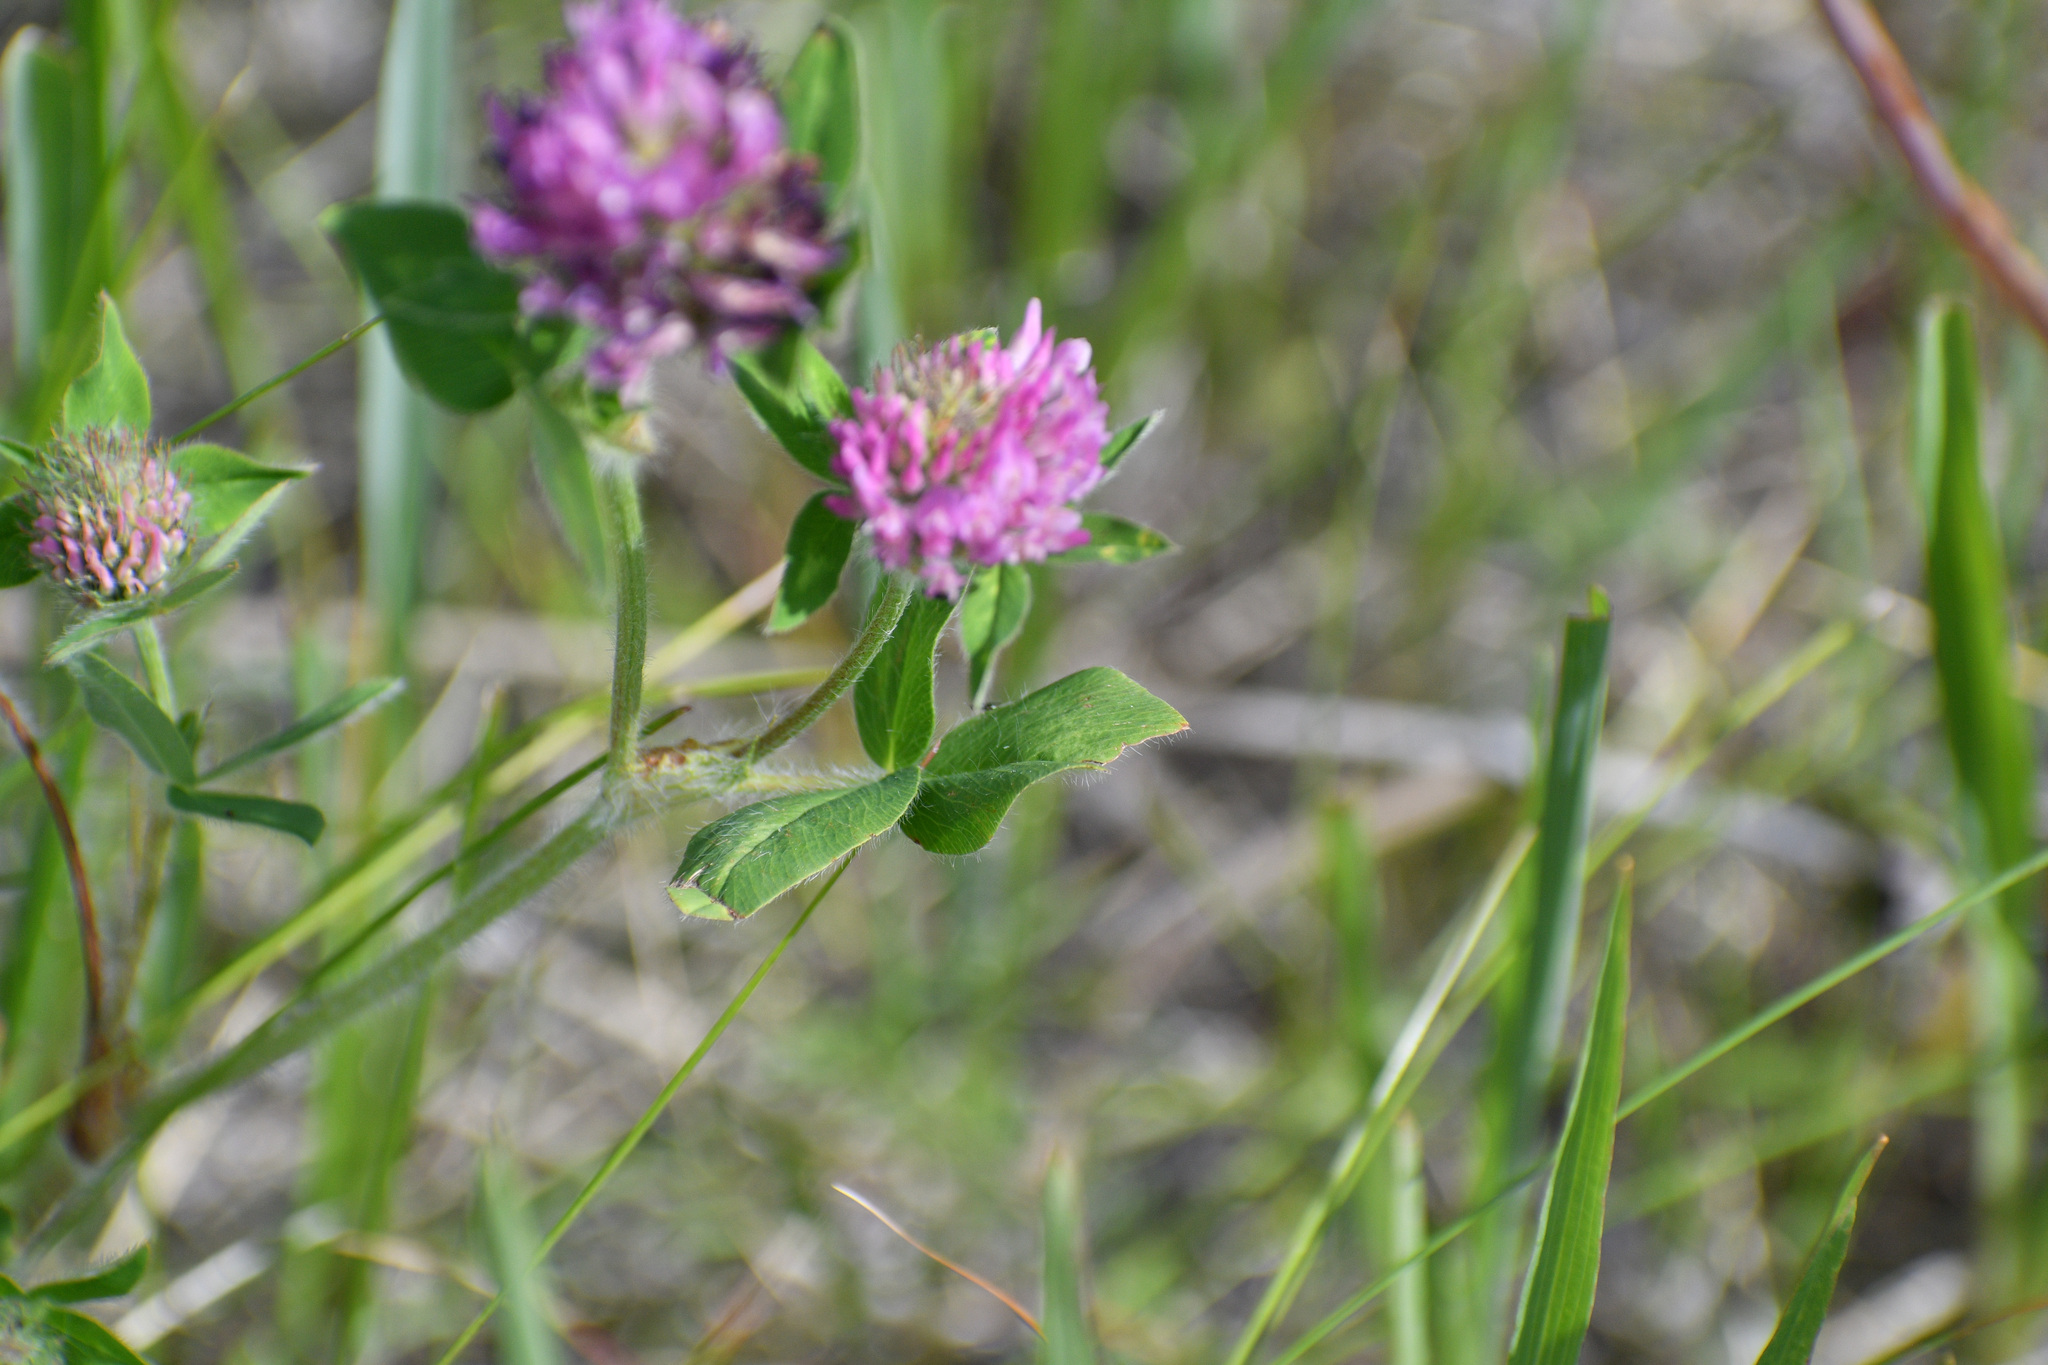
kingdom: Plantae
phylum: Tracheophyta
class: Magnoliopsida
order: Fabales
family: Fabaceae
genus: Trifolium
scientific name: Trifolium pratense
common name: Red clover
